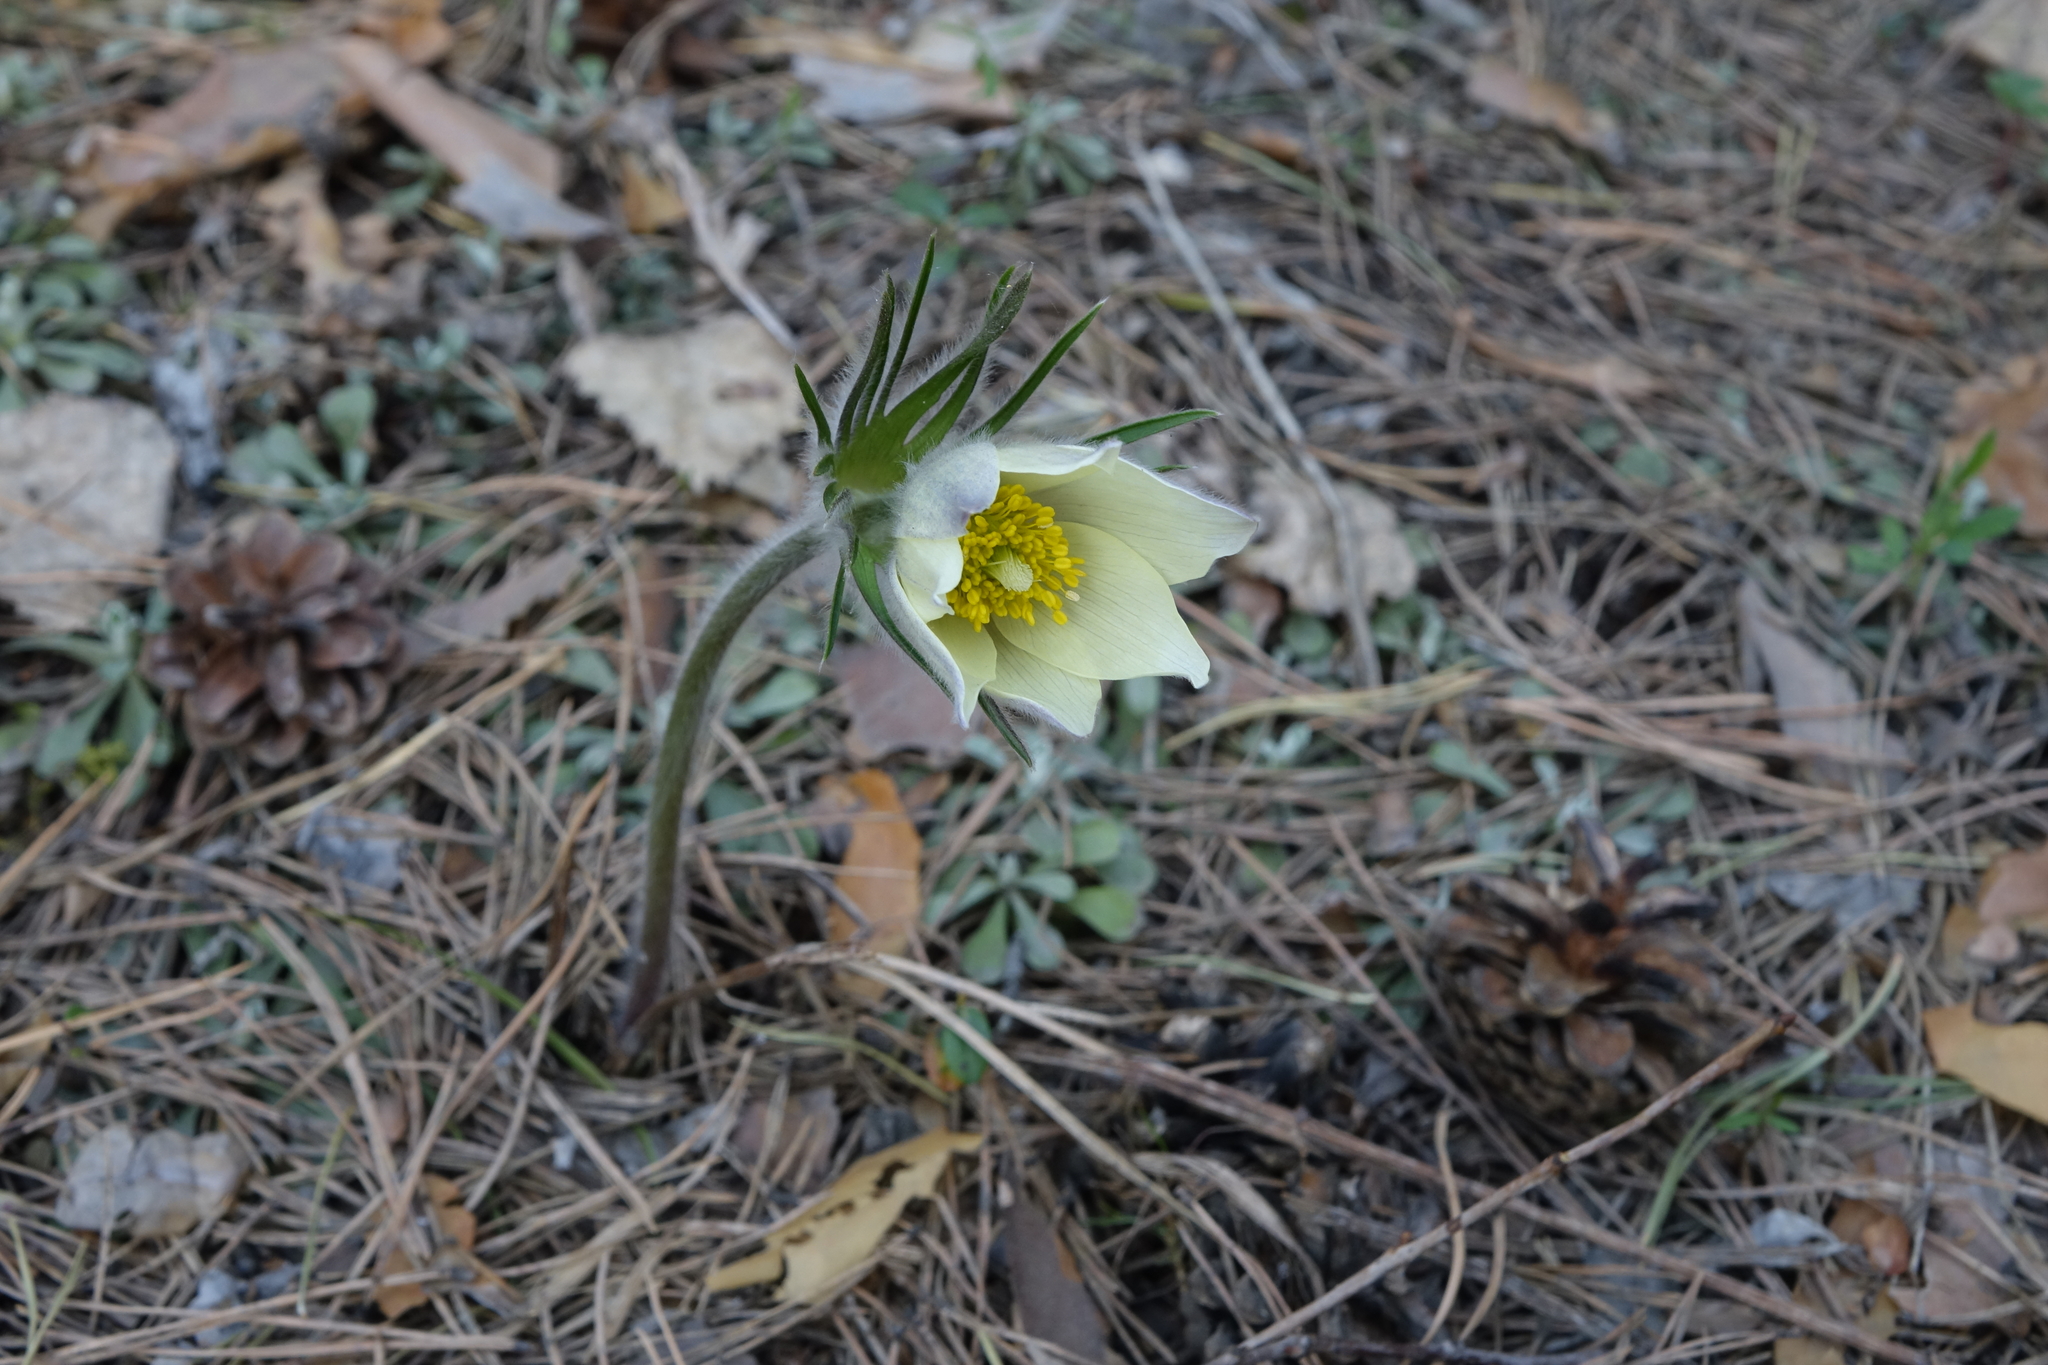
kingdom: Plantae
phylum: Tracheophyta
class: Magnoliopsida
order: Ranunculales
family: Ranunculaceae
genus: Pulsatilla
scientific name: Pulsatilla patens
